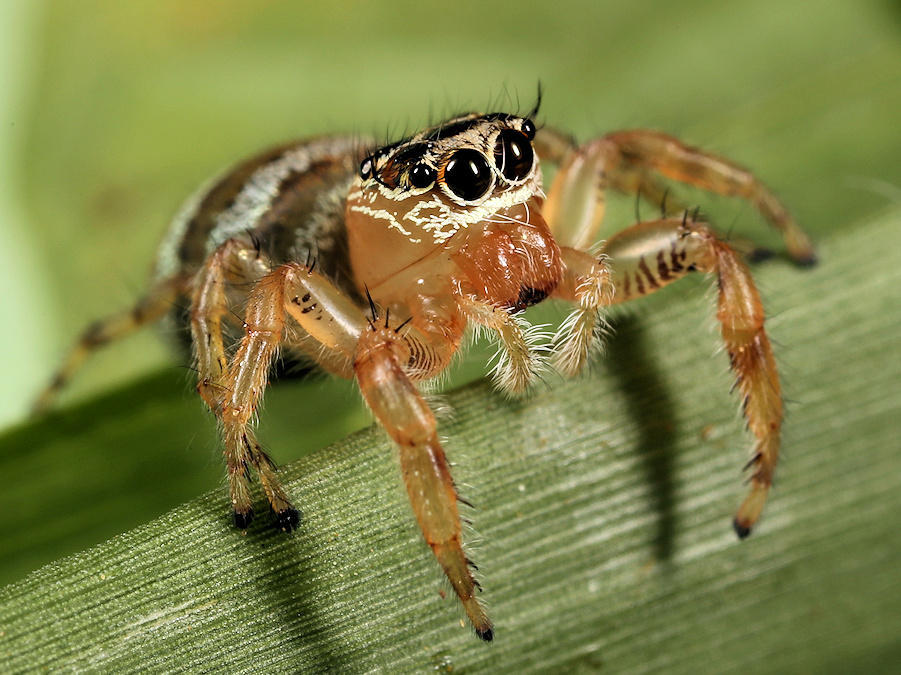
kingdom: Animalia
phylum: Arthropoda
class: Arachnida
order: Araneae
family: Salticidae
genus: Thyene
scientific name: Thyene natalii
